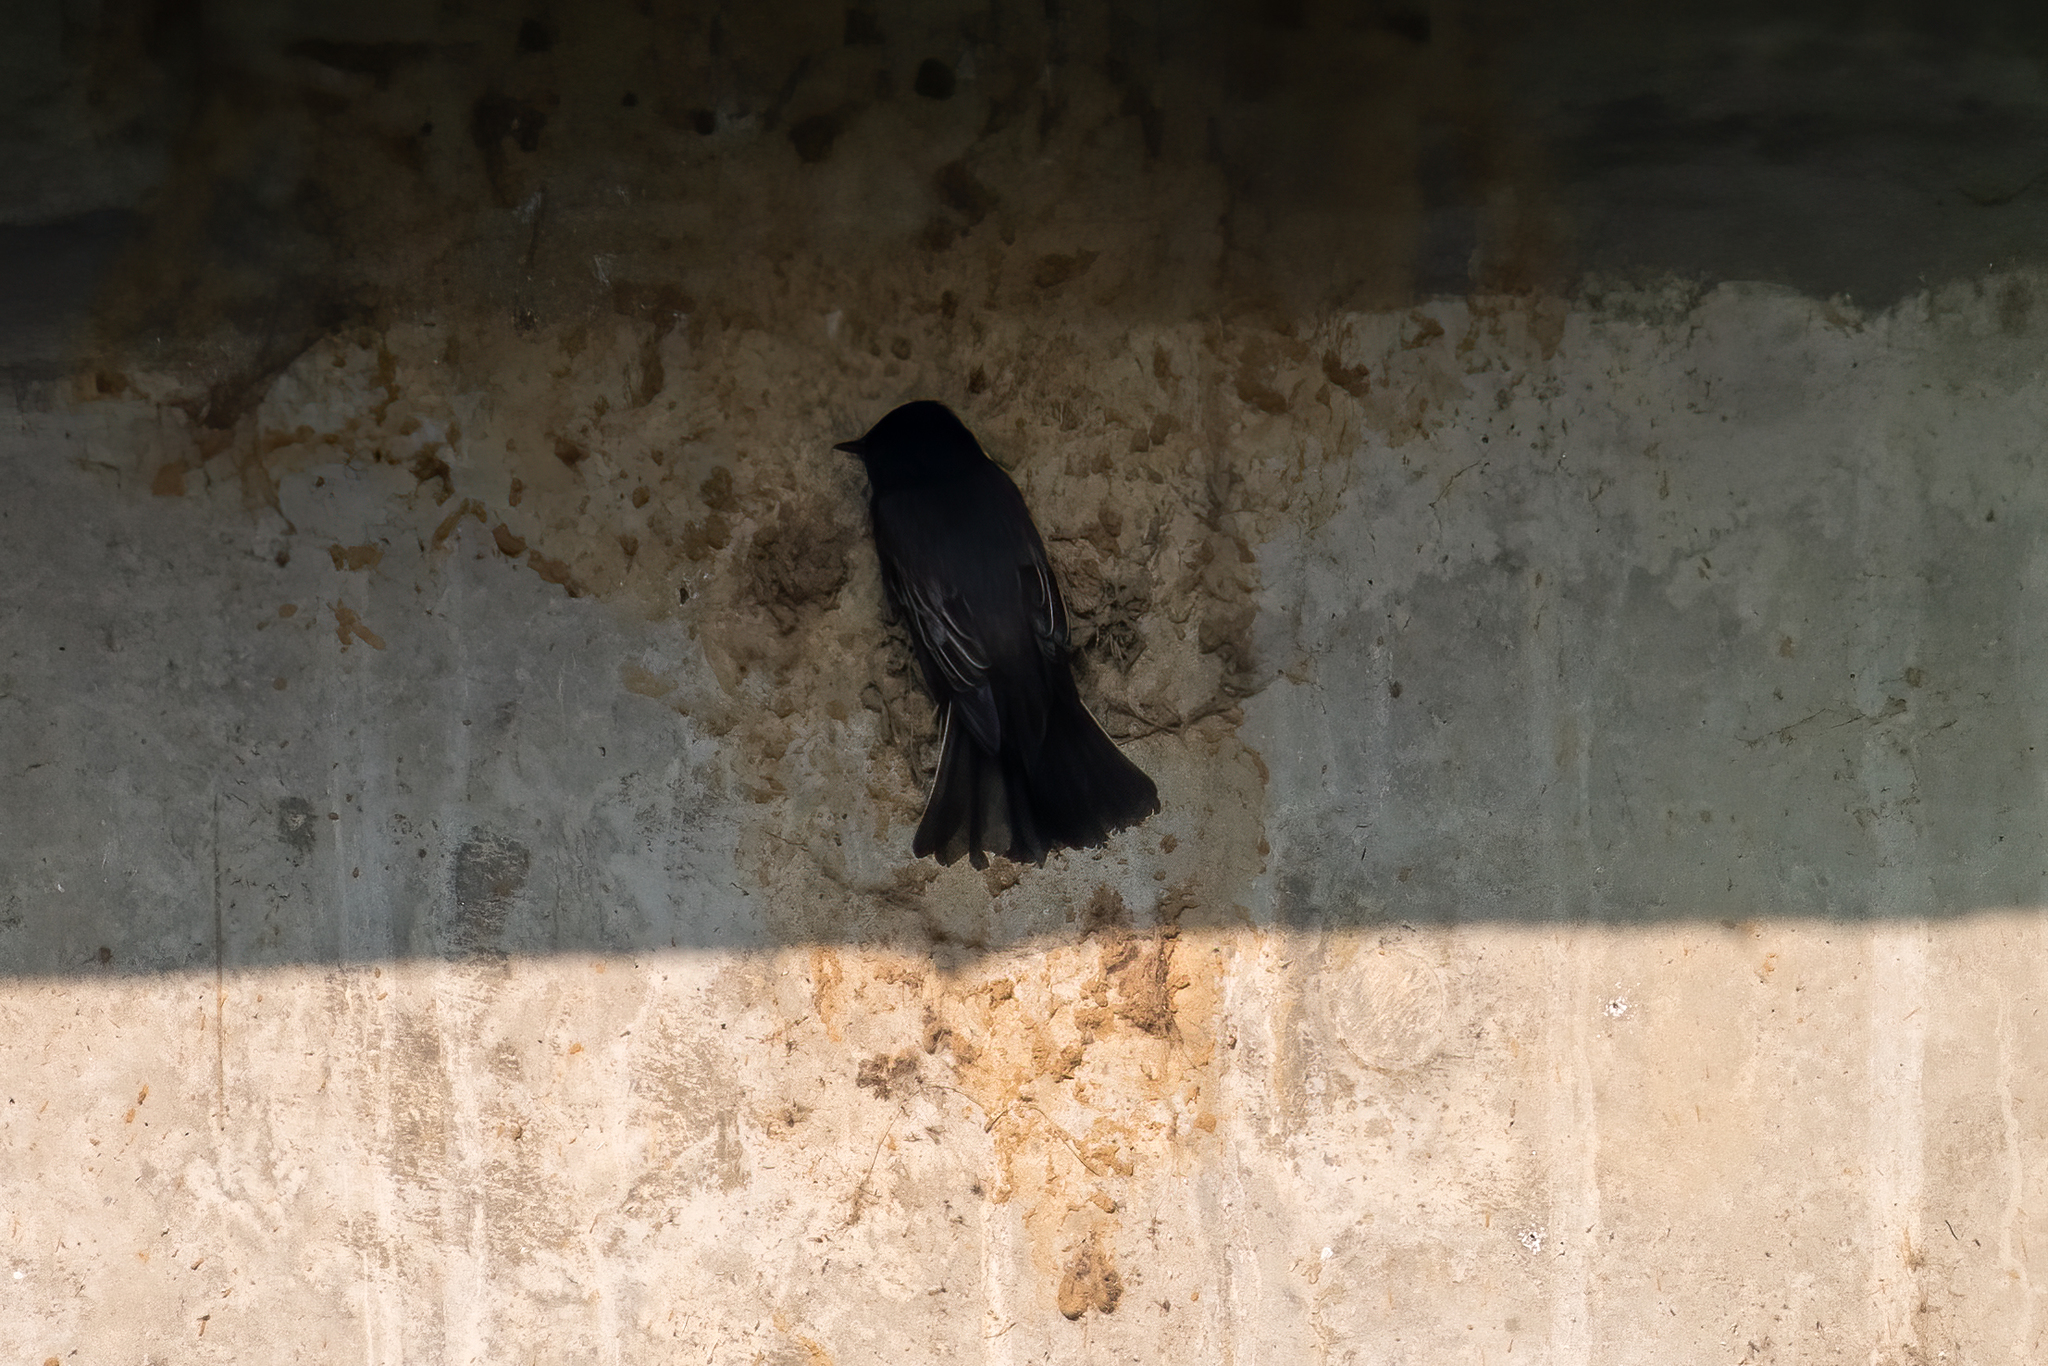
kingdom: Animalia
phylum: Chordata
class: Aves
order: Passeriformes
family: Tyrannidae
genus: Sayornis
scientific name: Sayornis nigricans
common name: Black phoebe
